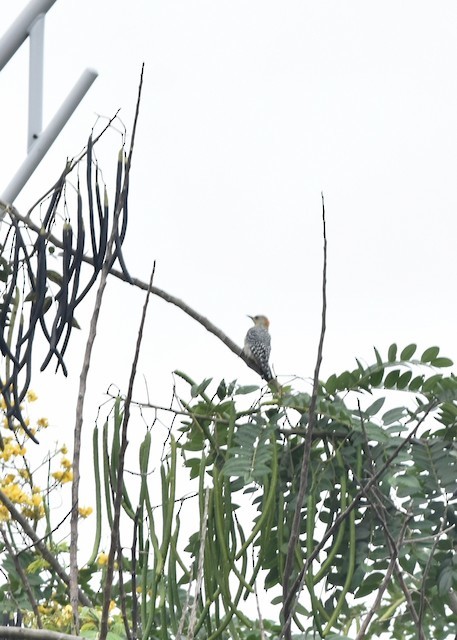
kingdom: Animalia
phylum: Chordata
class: Aves
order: Piciformes
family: Picidae
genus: Melanerpes
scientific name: Melanerpes rubricapillus
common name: Red-crowned woodpecker
